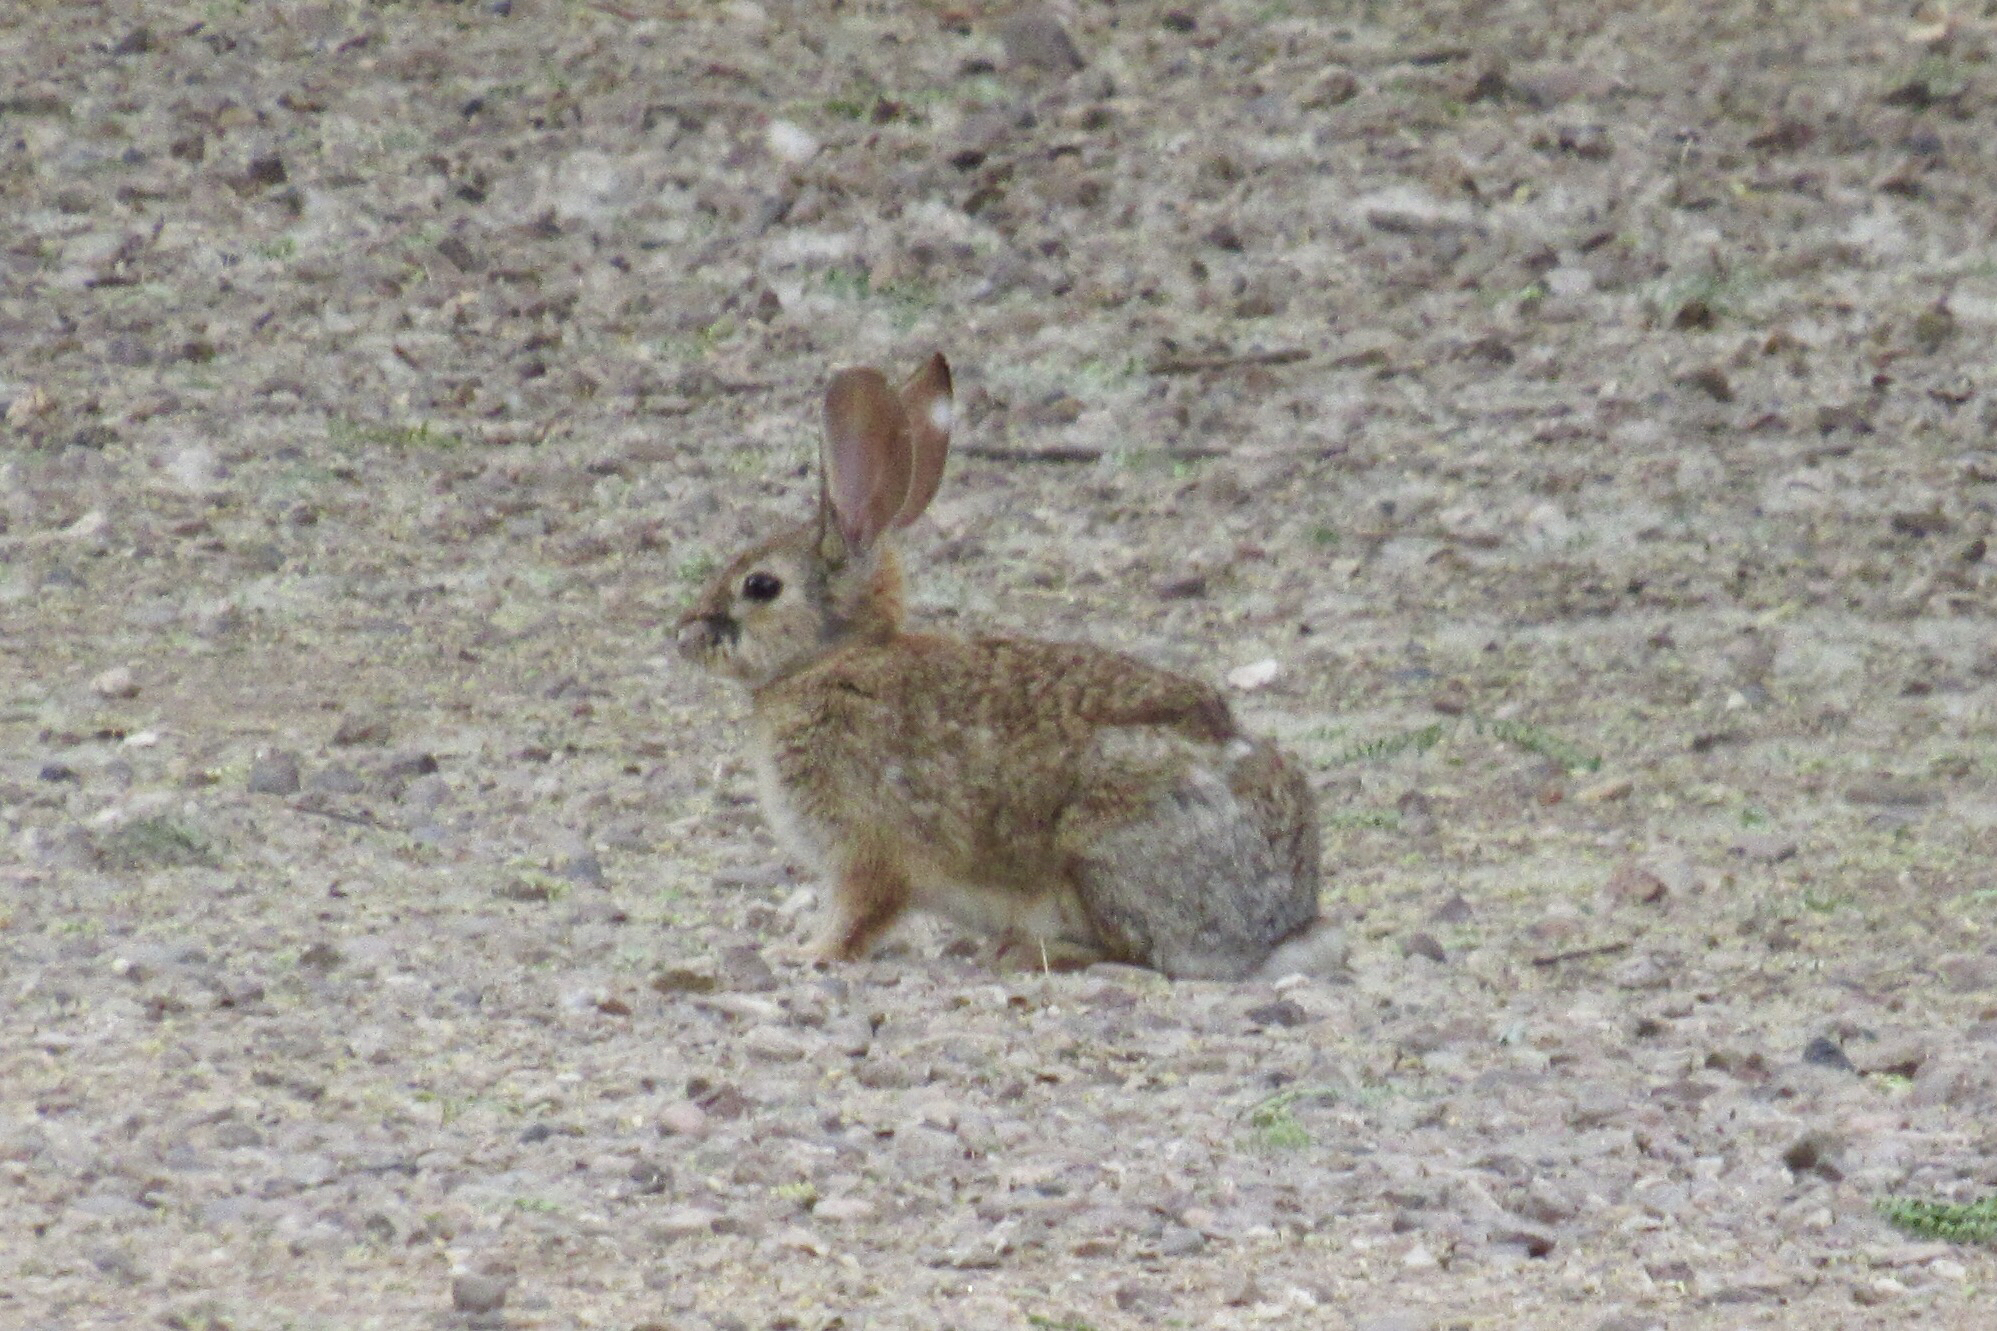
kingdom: Animalia
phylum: Chordata
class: Mammalia
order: Lagomorpha
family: Leporidae
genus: Sylvilagus
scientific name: Sylvilagus audubonii
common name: Desert cottontail
